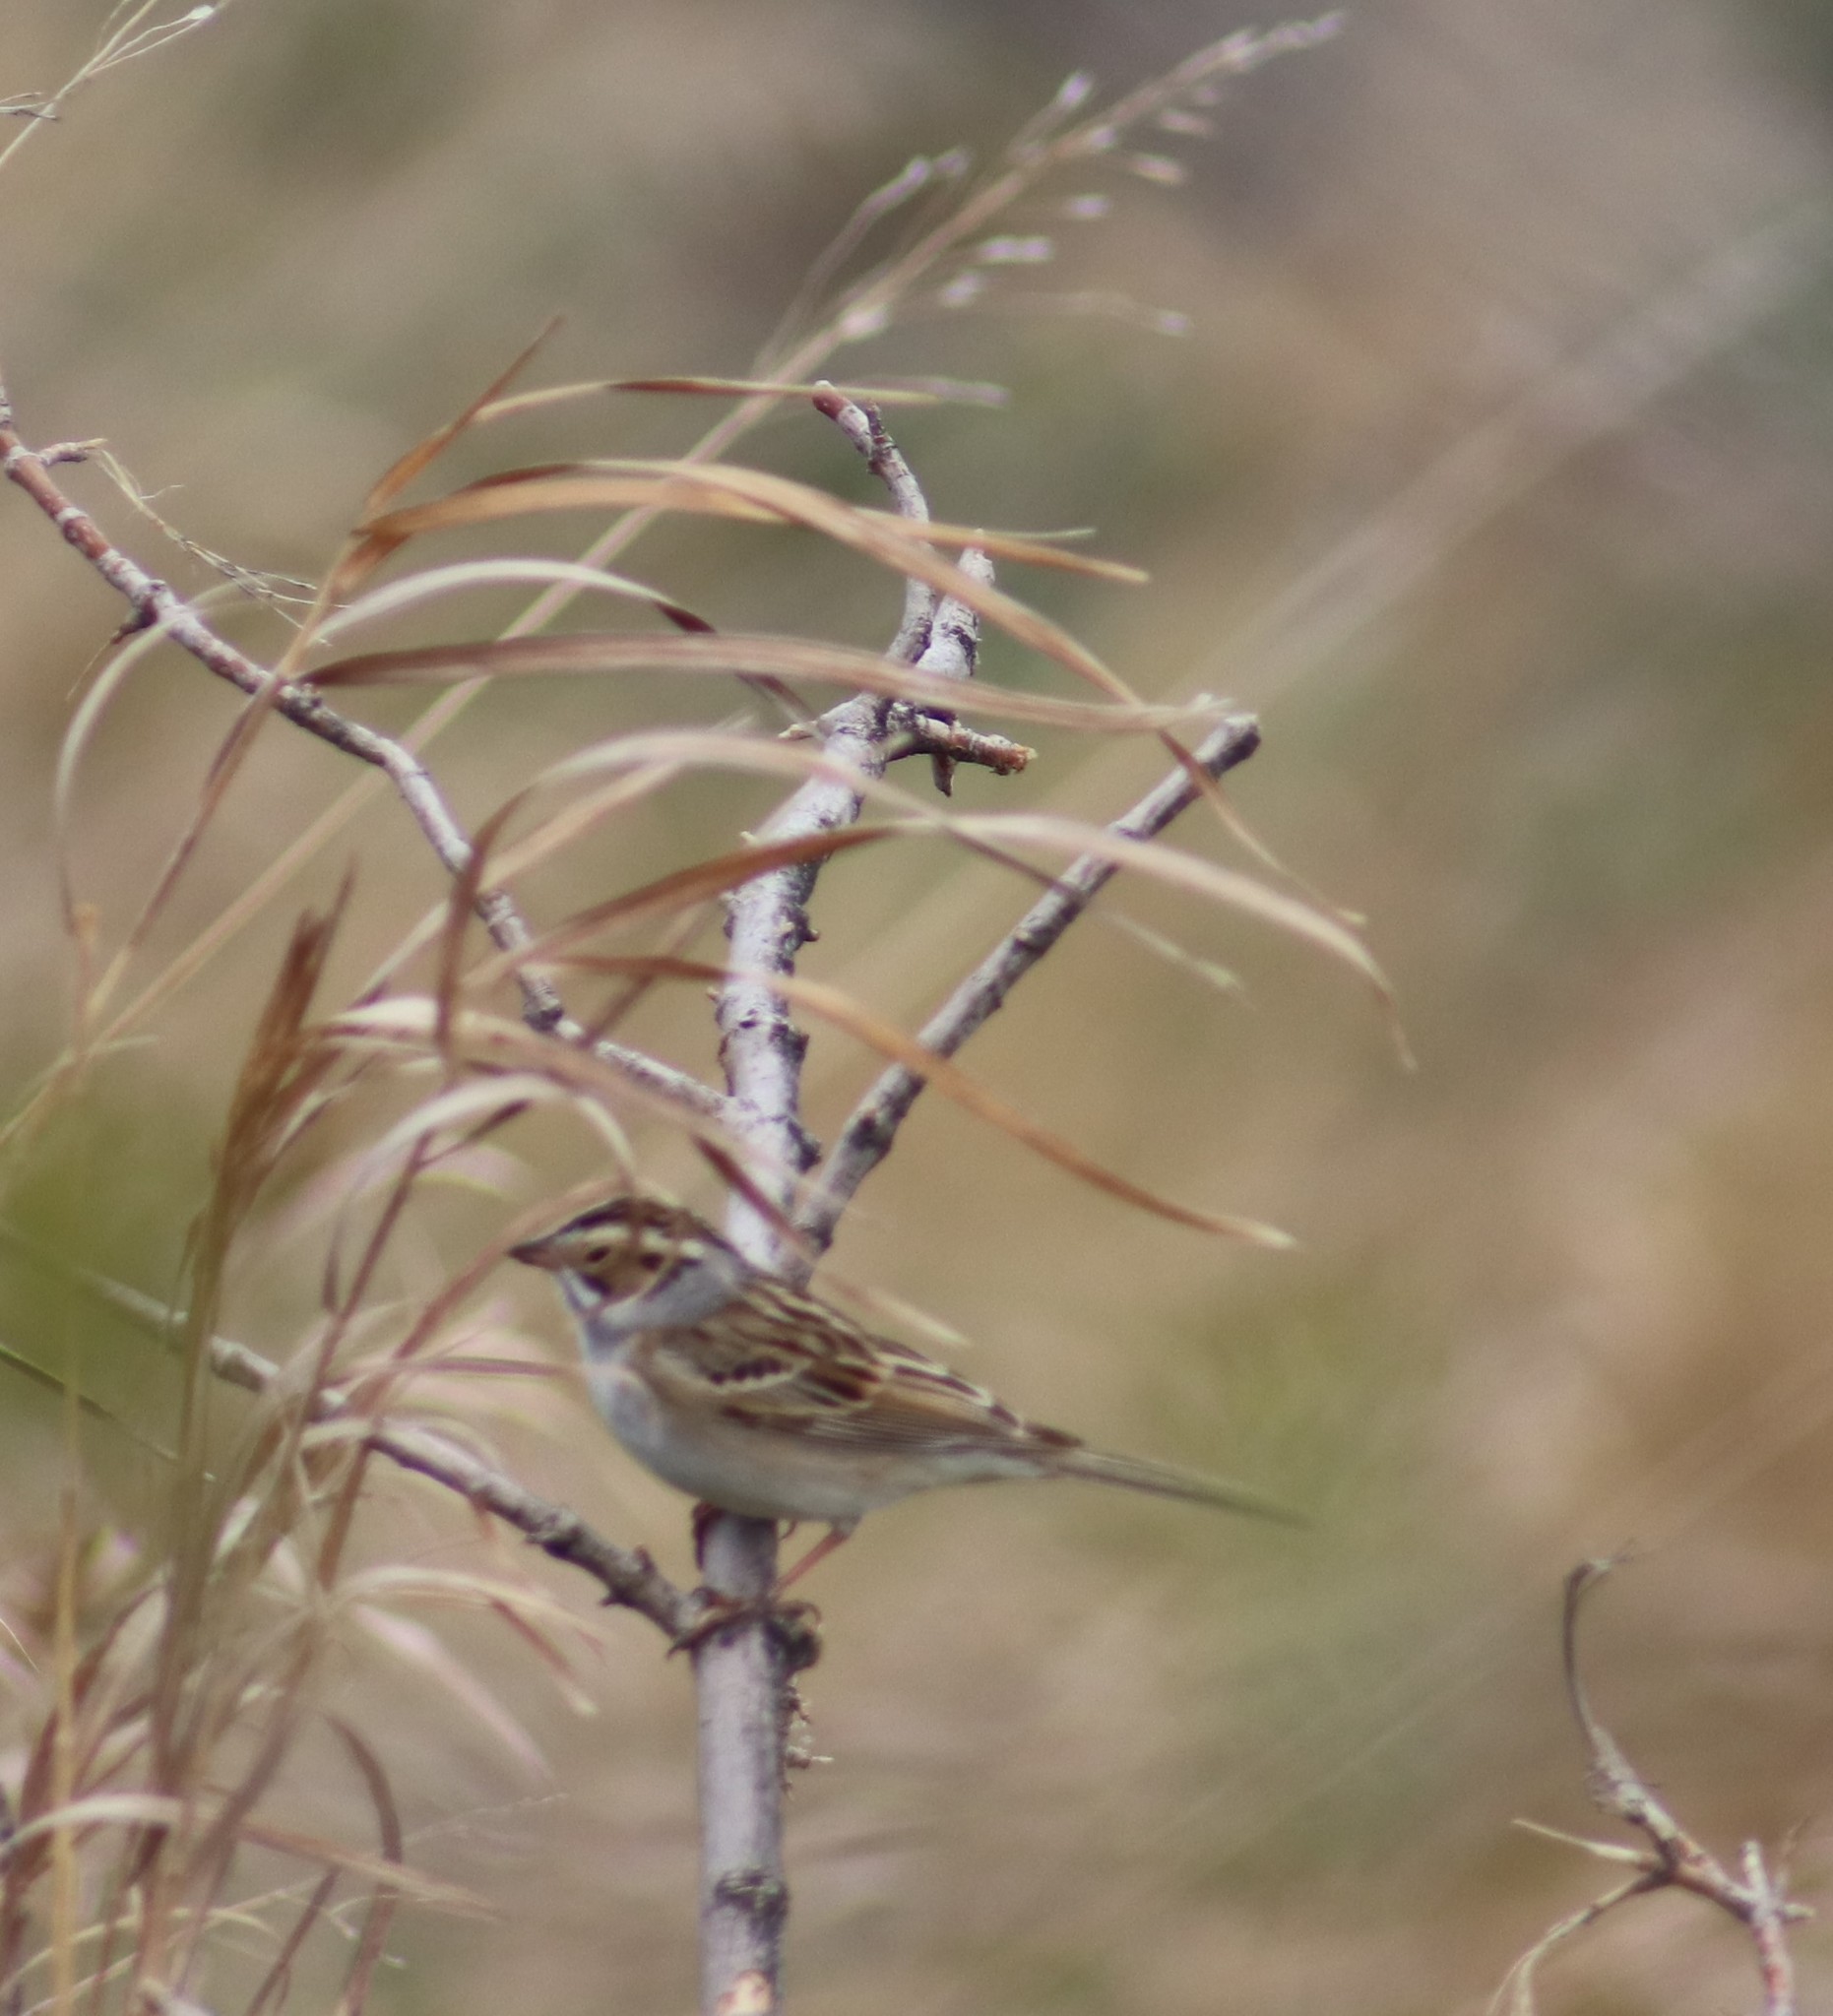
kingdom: Animalia
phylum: Chordata
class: Aves
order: Passeriformes
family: Passerellidae
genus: Spizella
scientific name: Spizella pallida
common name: Clay-colored sparrow
